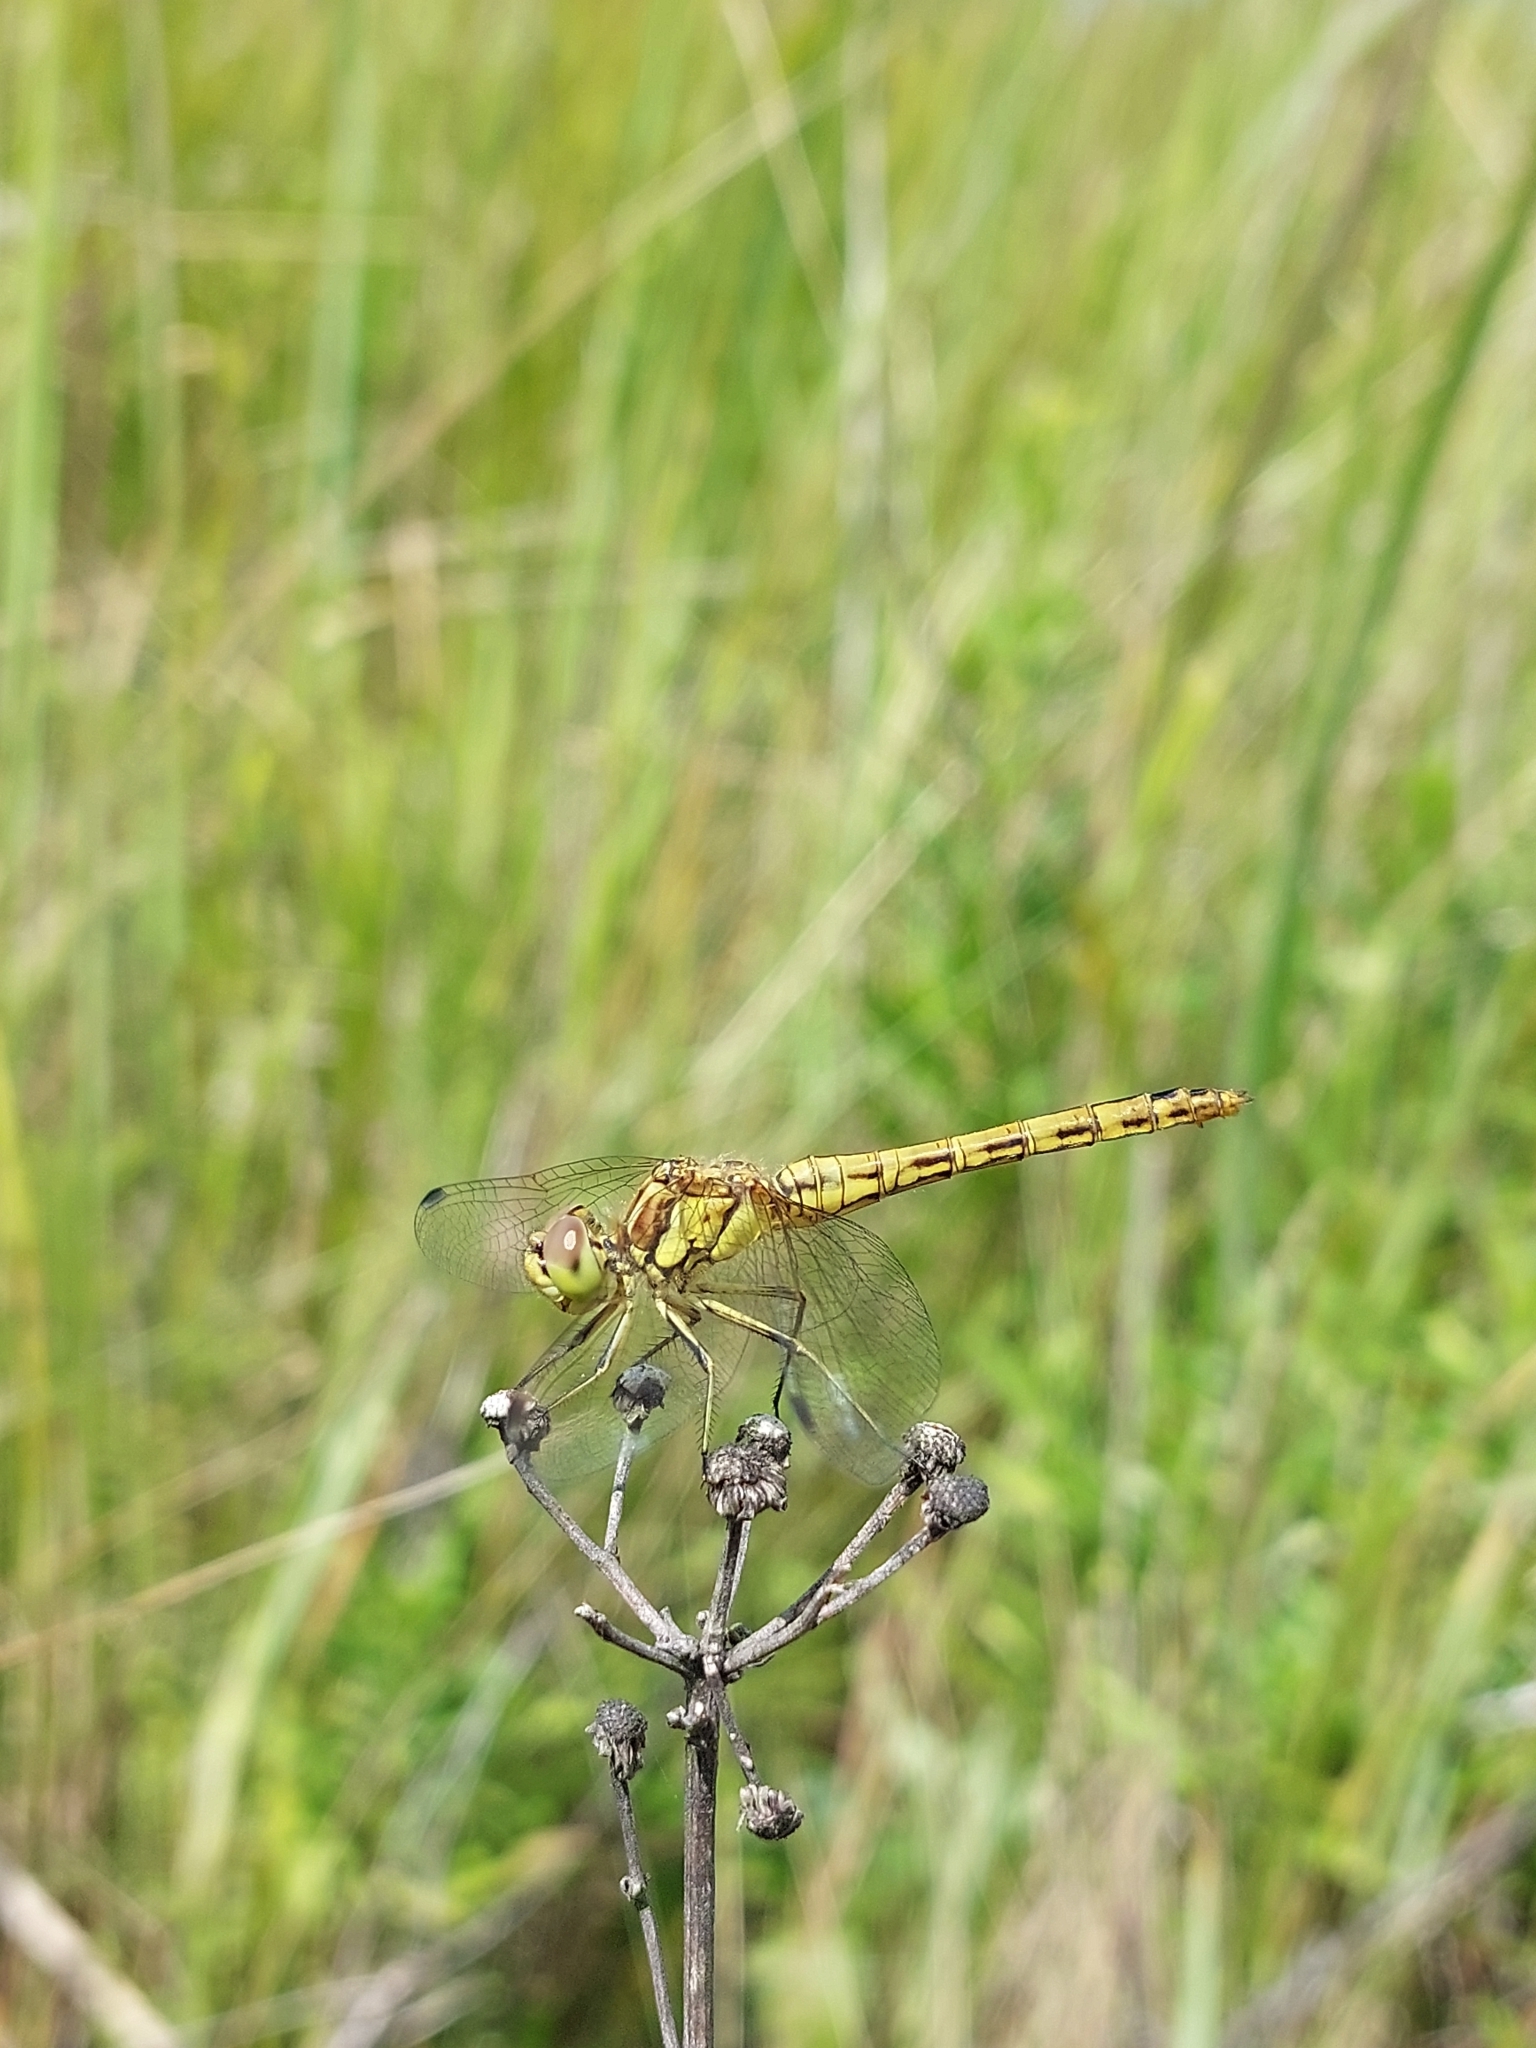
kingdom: Animalia
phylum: Arthropoda
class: Insecta
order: Odonata
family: Libellulidae
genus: Sympetrum
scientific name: Sympetrum vulgatum
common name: Vagrant darter
